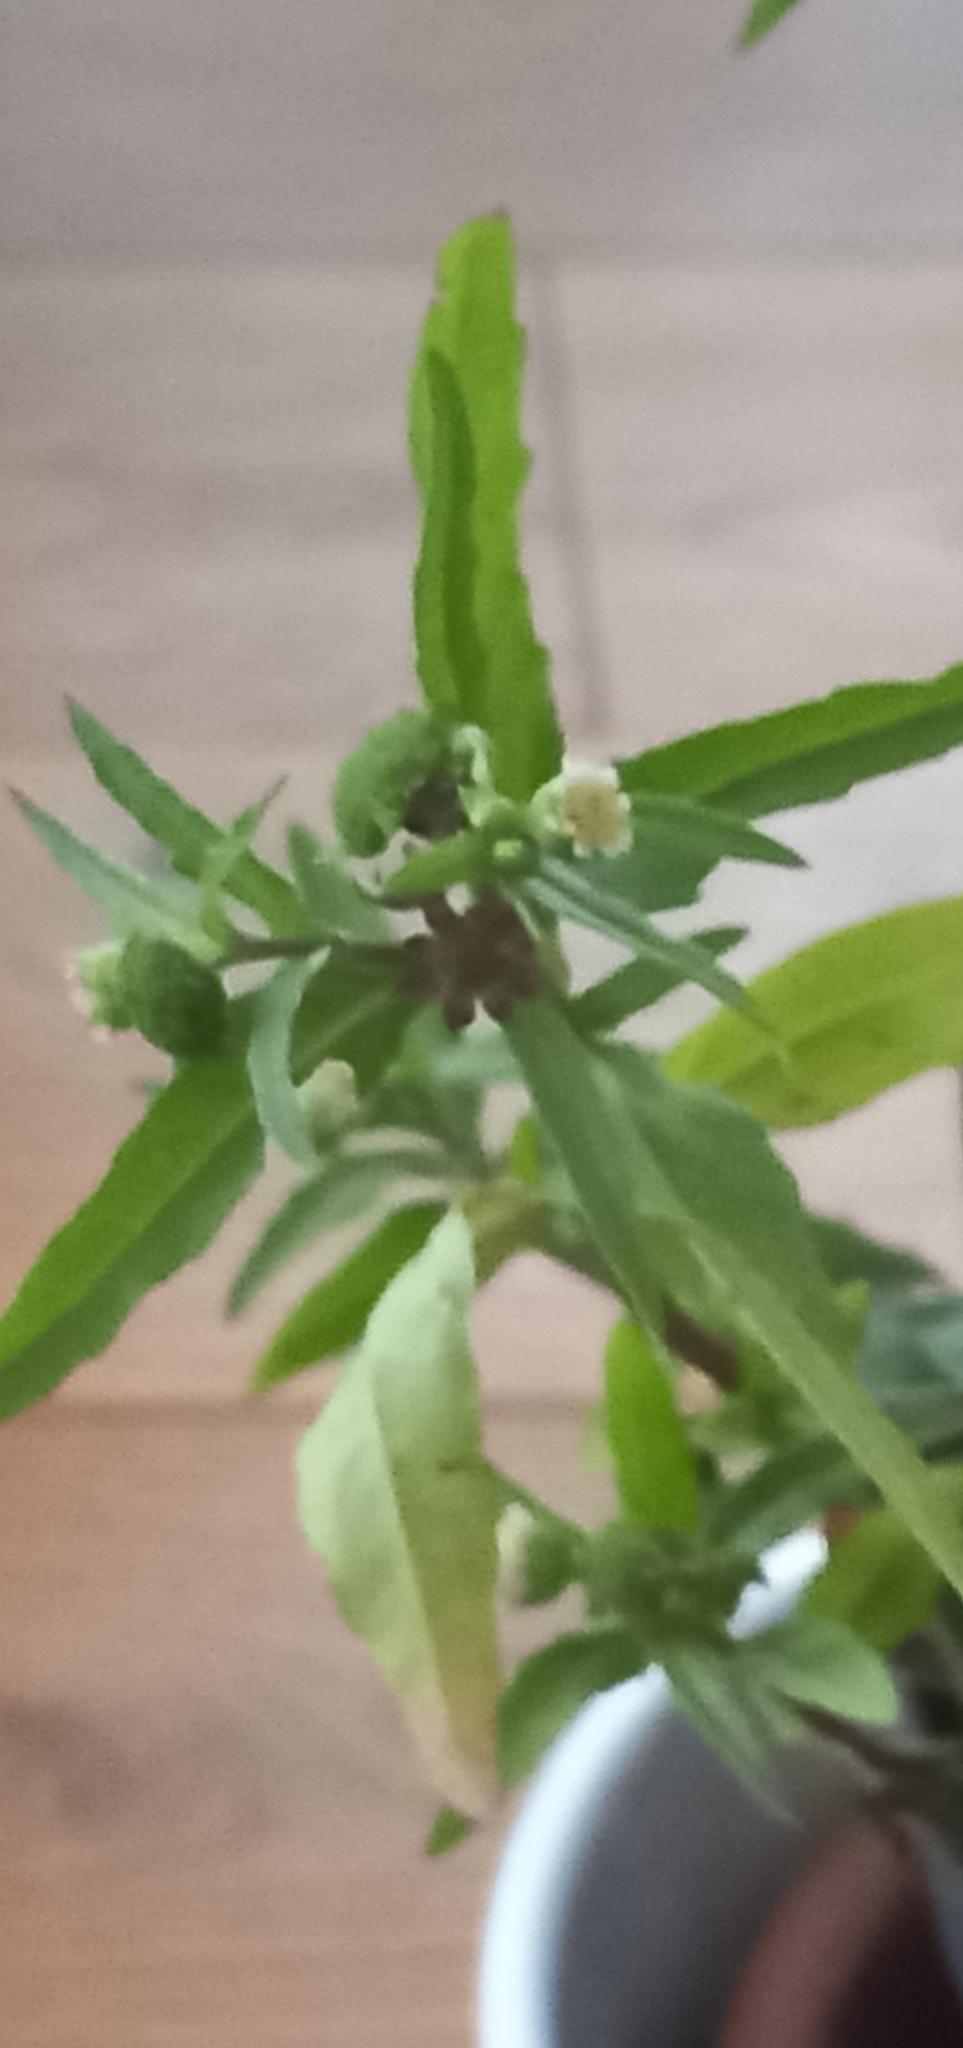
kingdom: Plantae
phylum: Tracheophyta
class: Magnoliopsida
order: Asterales
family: Asteraceae
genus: Eclipta
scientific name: Eclipta prostrata
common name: False daisy
